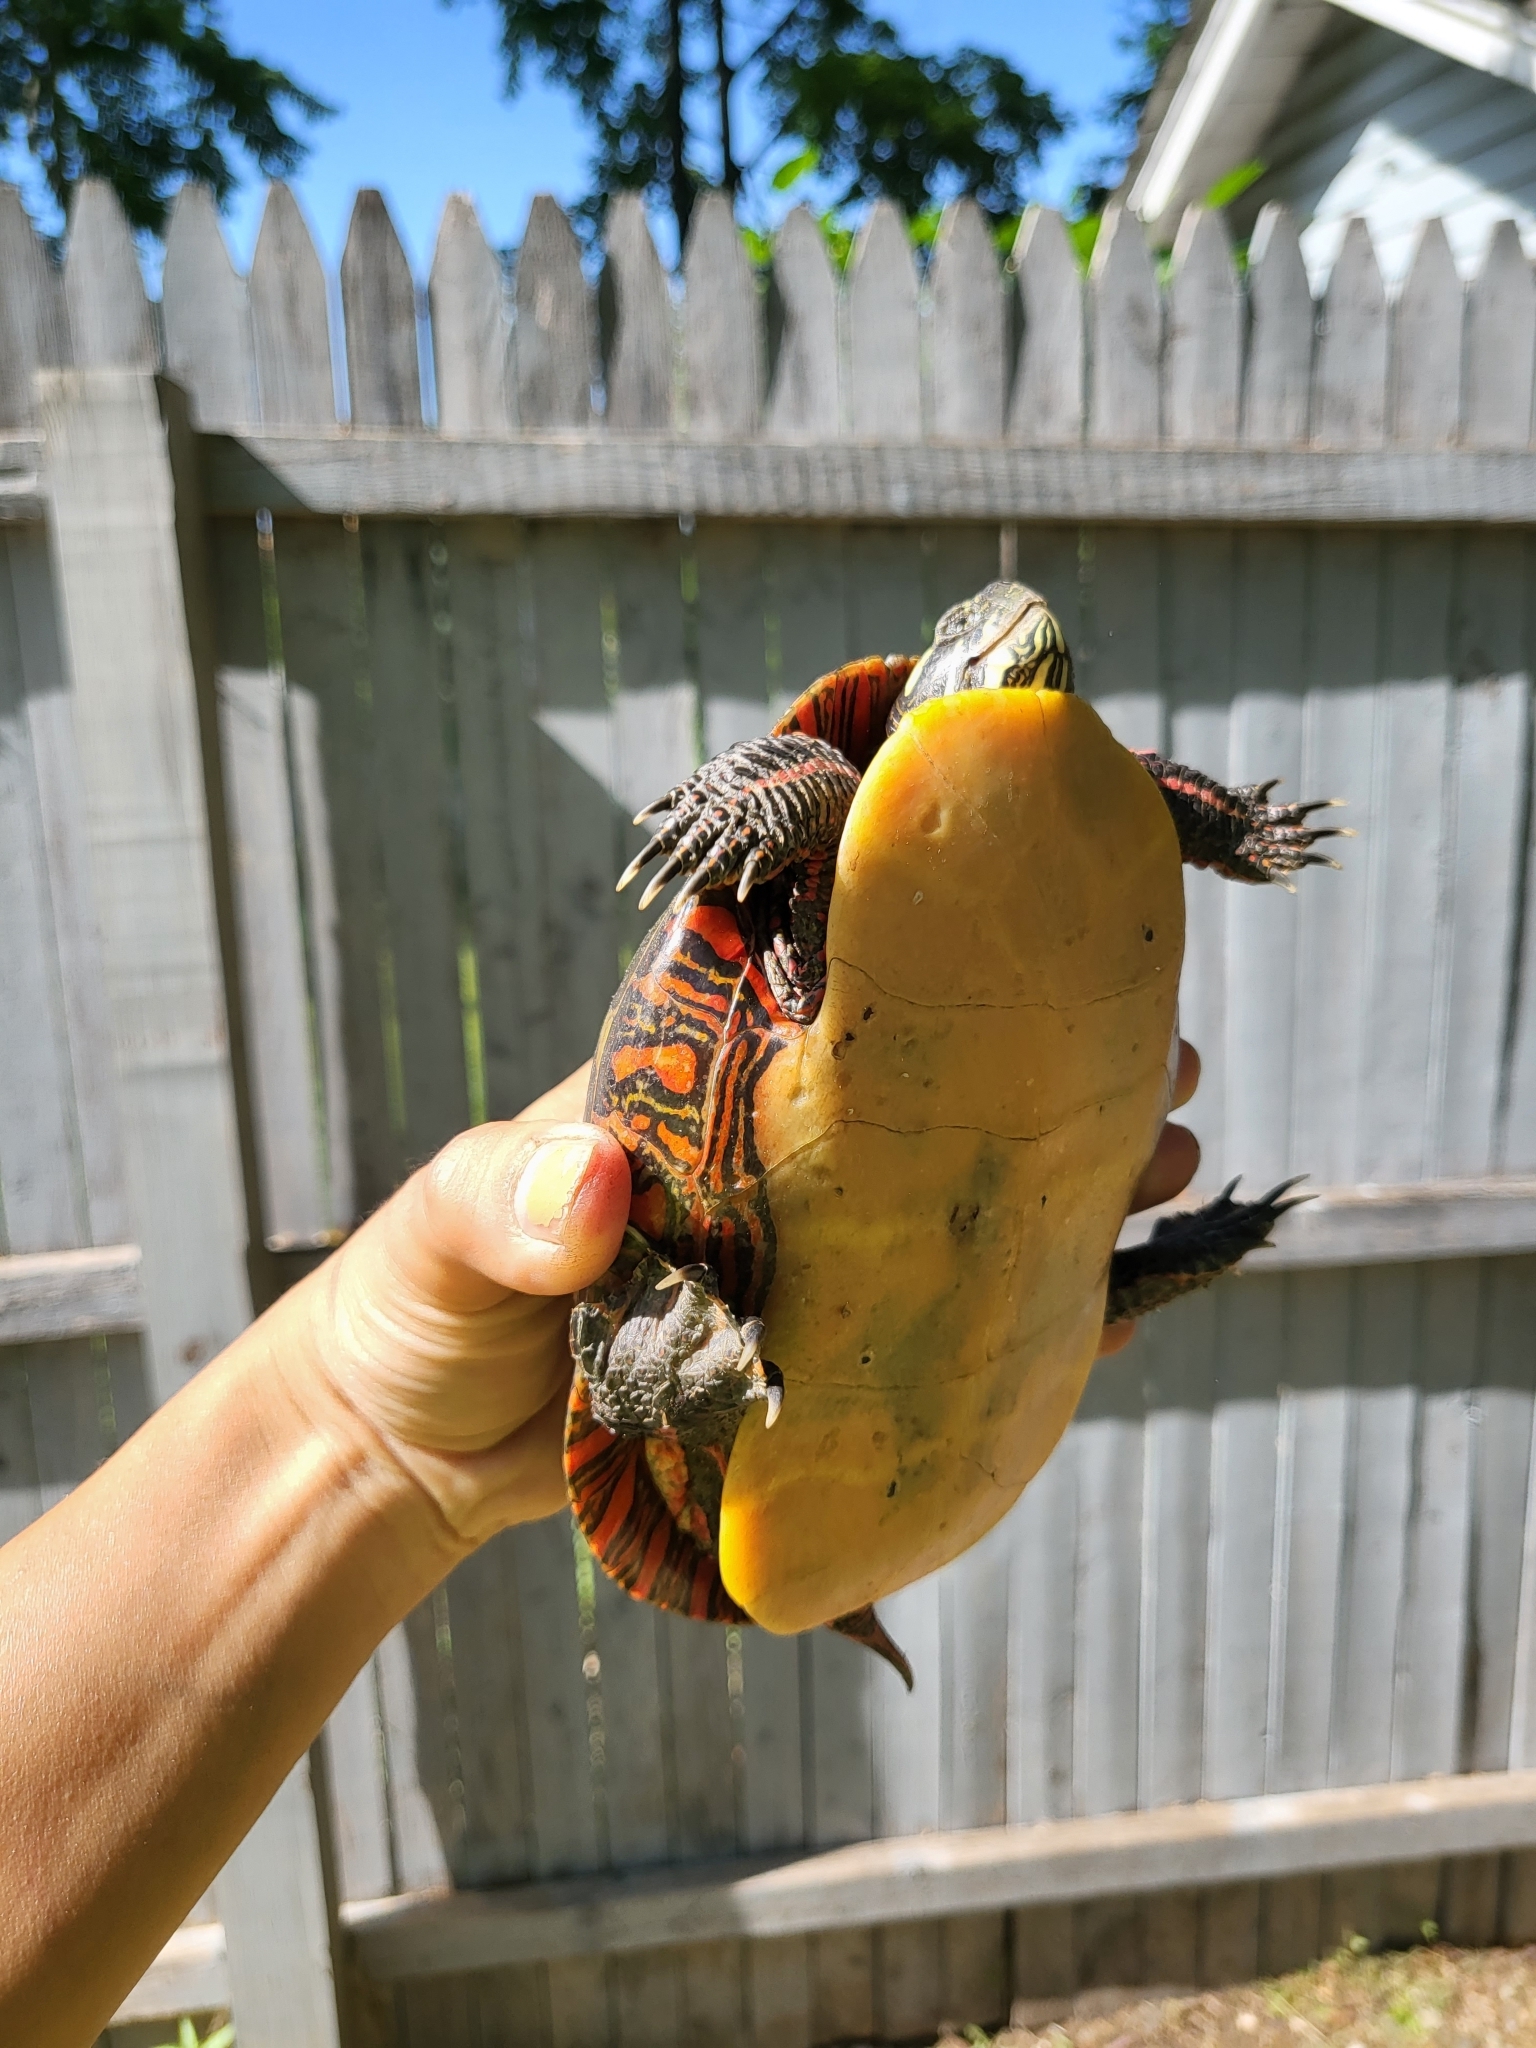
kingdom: Animalia
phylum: Chordata
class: Testudines
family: Emydidae
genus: Chrysemys
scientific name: Chrysemys picta
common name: Painted turtle
